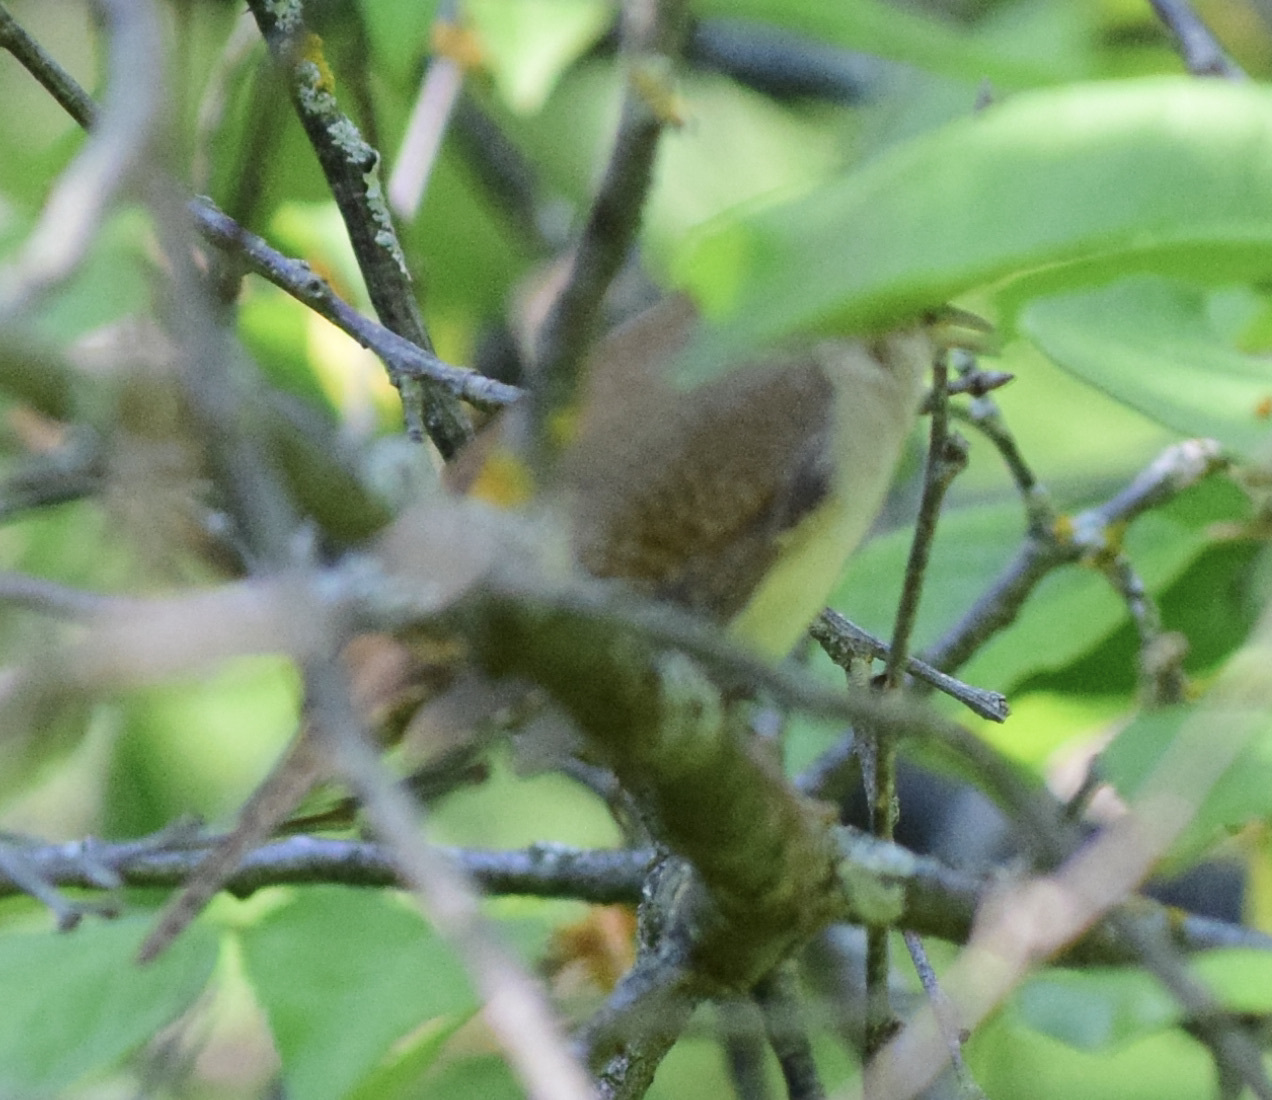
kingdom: Animalia
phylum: Chordata
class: Aves
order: Passeriformes
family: Troglodytidae
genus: Troglodytes
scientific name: Troglodytes aedon
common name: House wren
